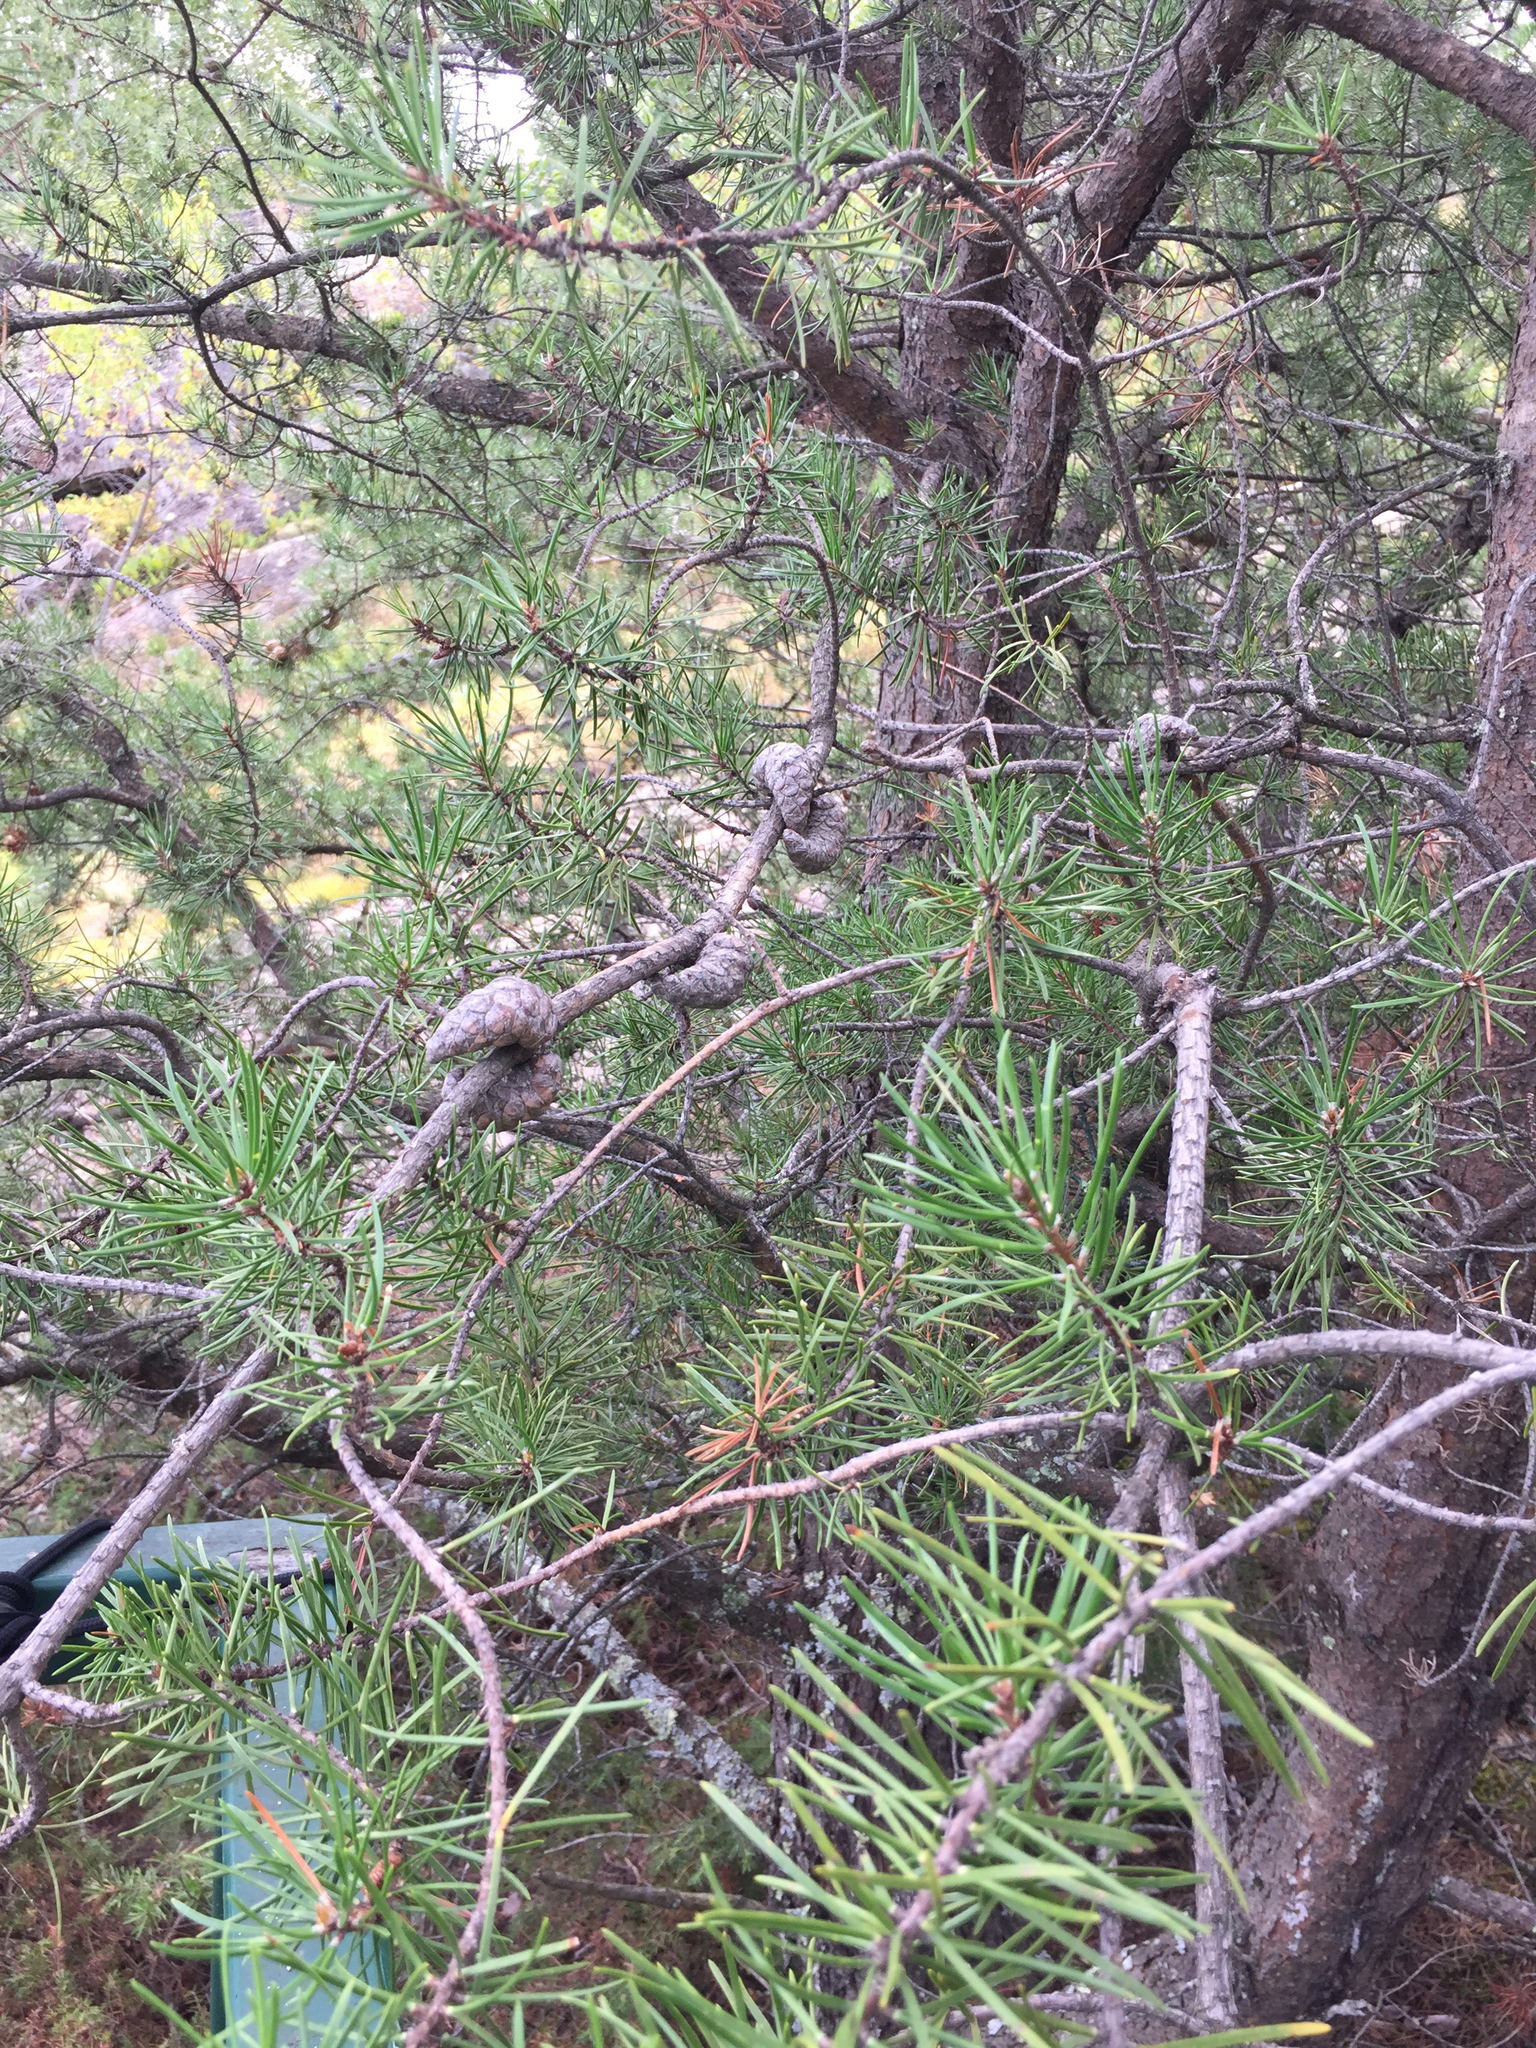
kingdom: Plantae
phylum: Tracheophyta
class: Pinopsida
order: Pinales
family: Pinaceae
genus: Pinus
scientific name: Pinus banksiana
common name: Jack pine
